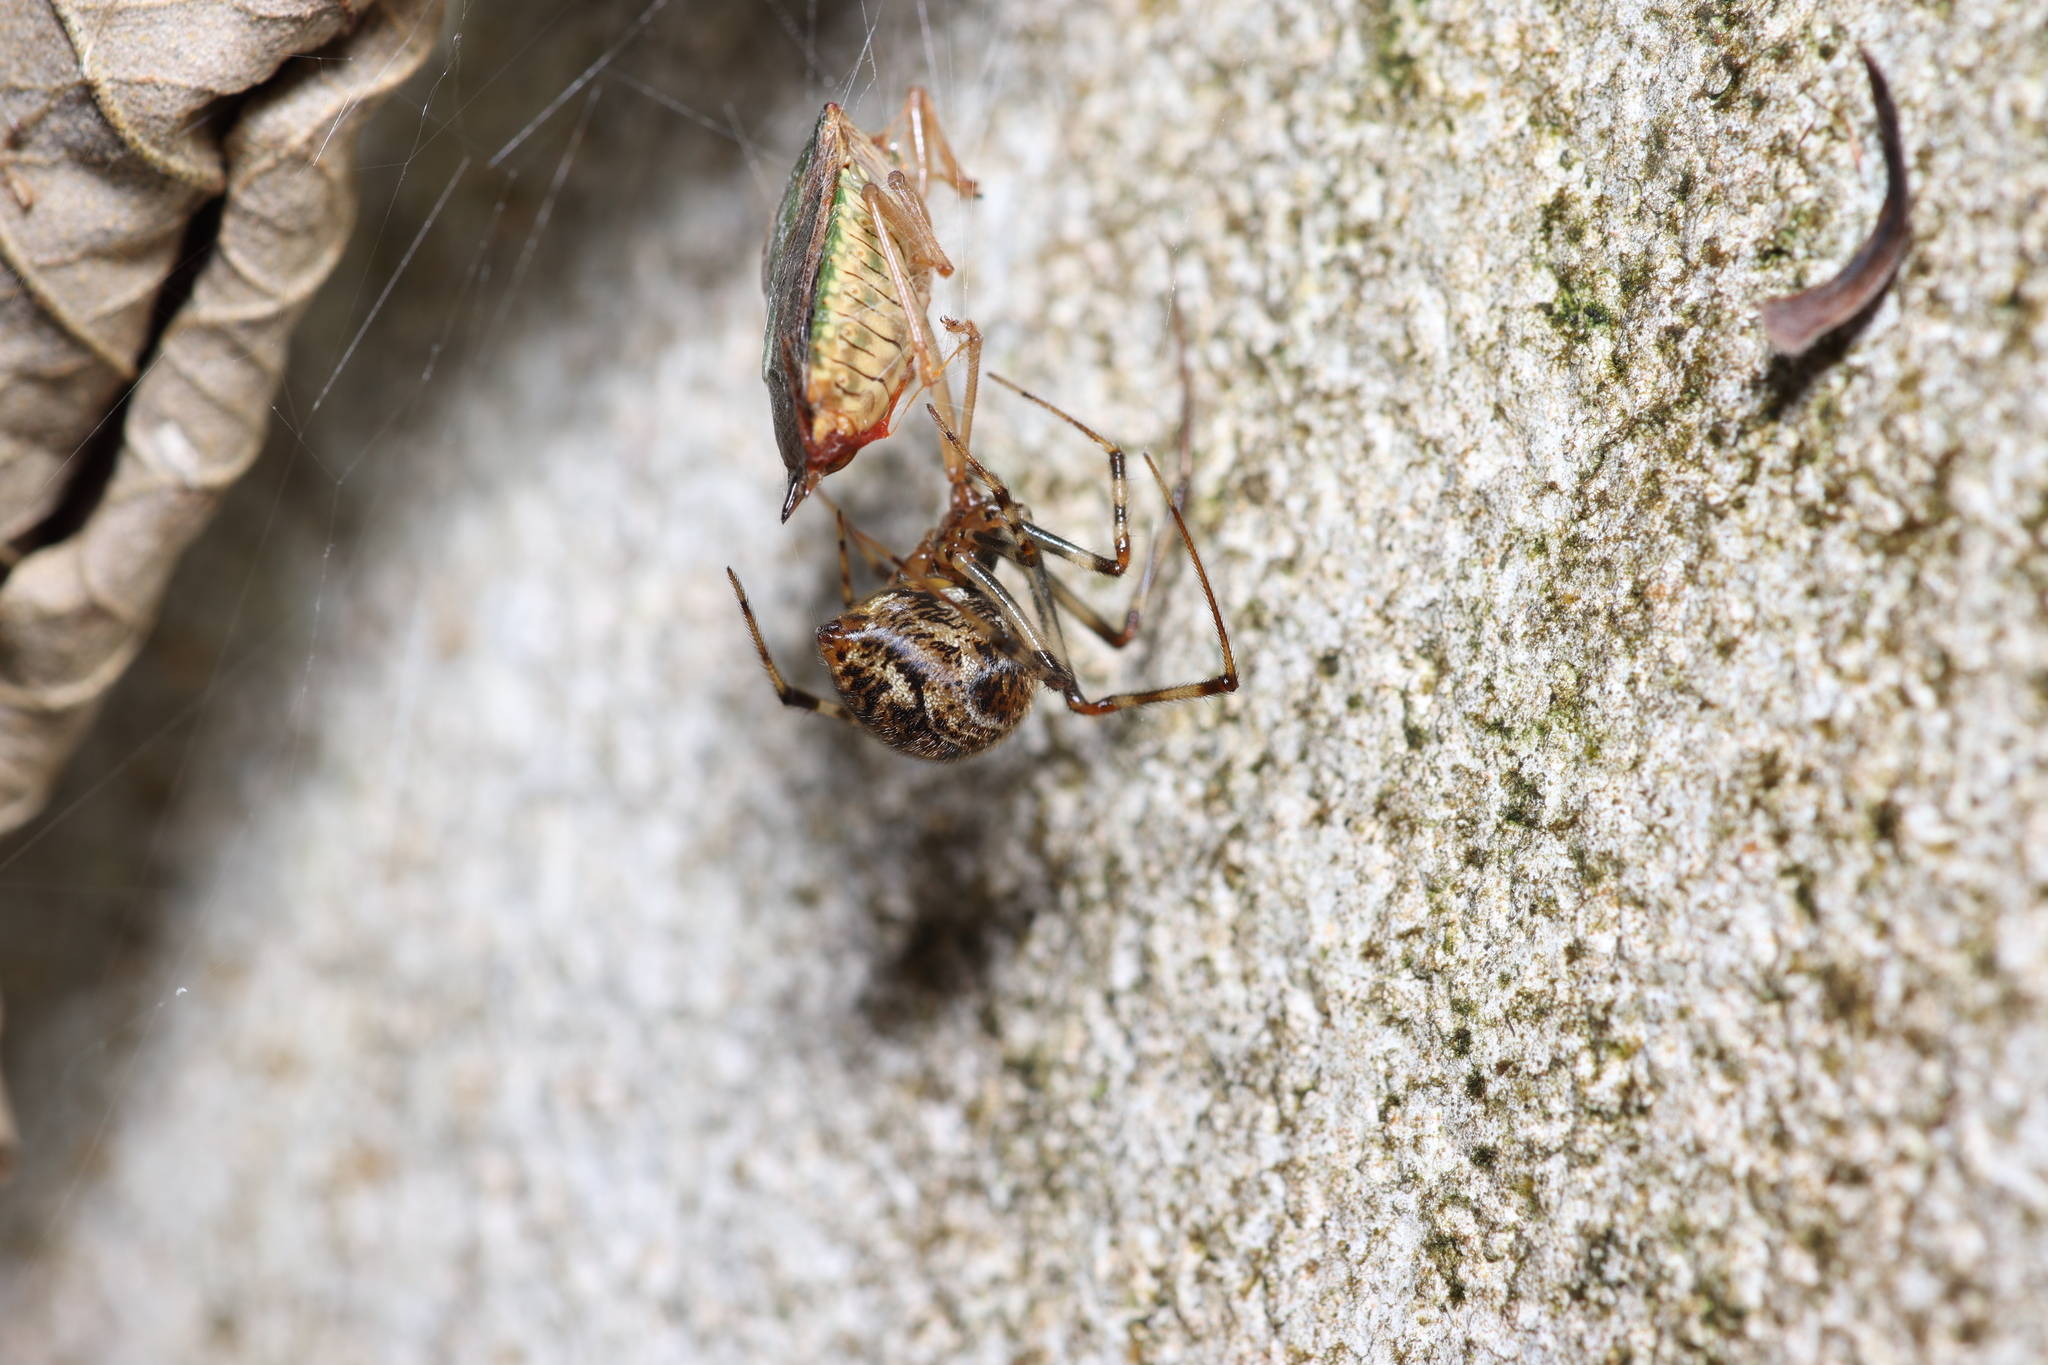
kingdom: Animalia
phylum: Arthropoda
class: Arachnida
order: Araneae
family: Theridiidae
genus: Parasteatoda
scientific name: Parasteatoda tepidariorum
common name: Common house spider
